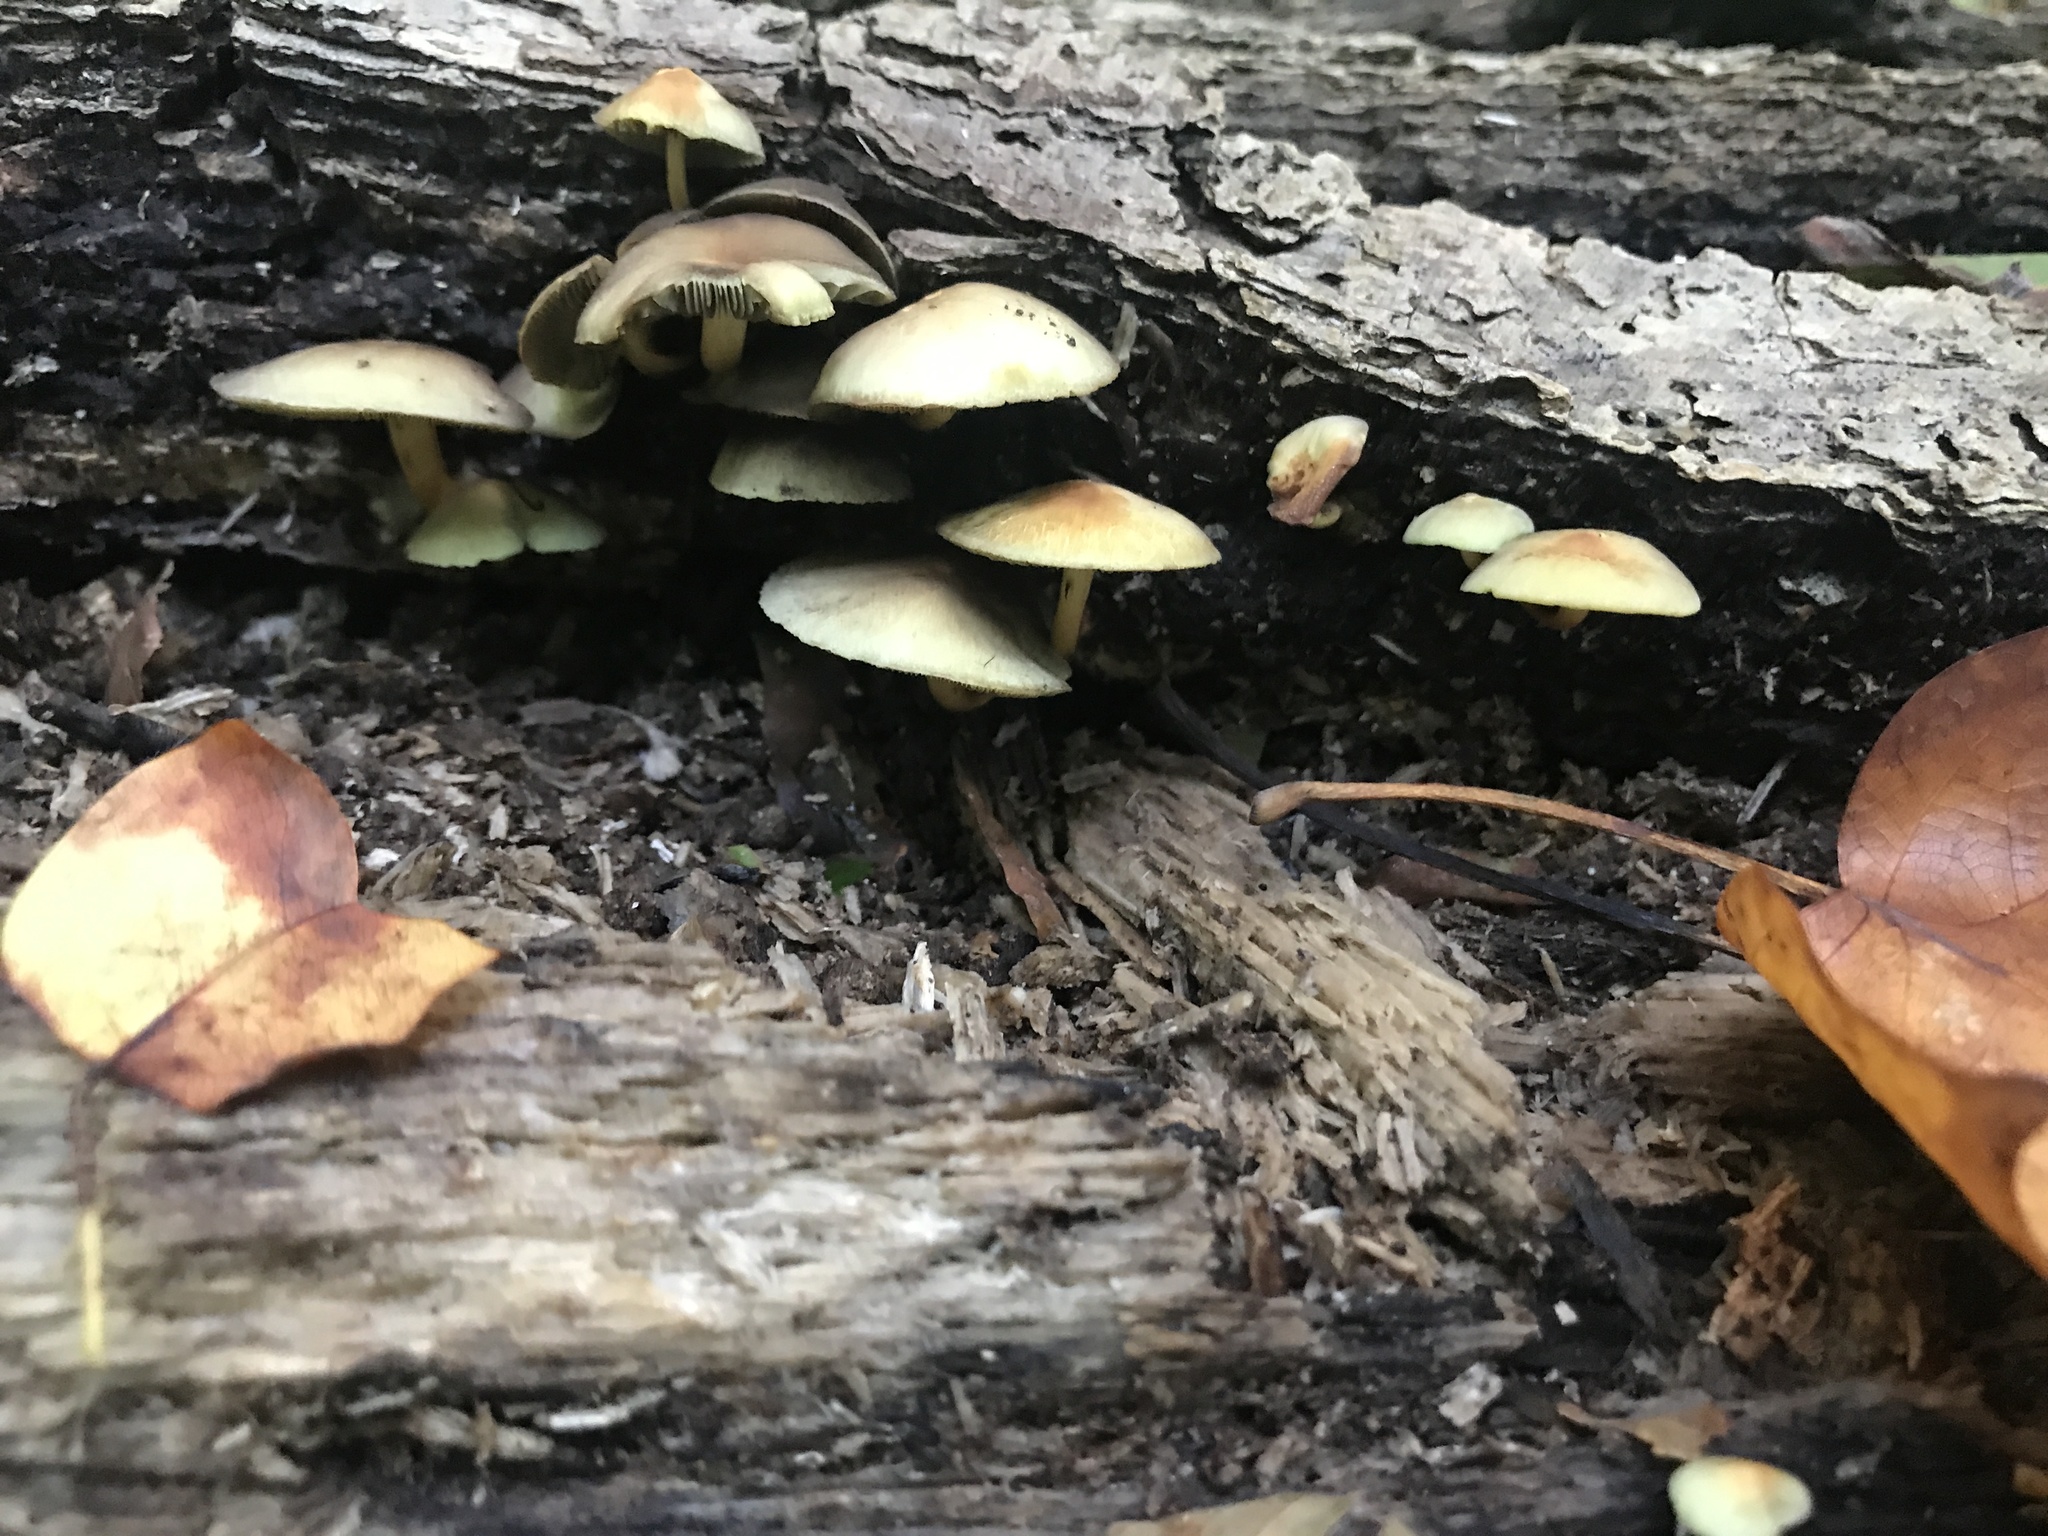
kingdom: Fungi
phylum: Basidiomycota
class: Agaricomycetes
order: Agaricales
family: Strophariaceae
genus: Hypholoma
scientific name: Hypholoma fasciculare
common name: Sulphur tuft
